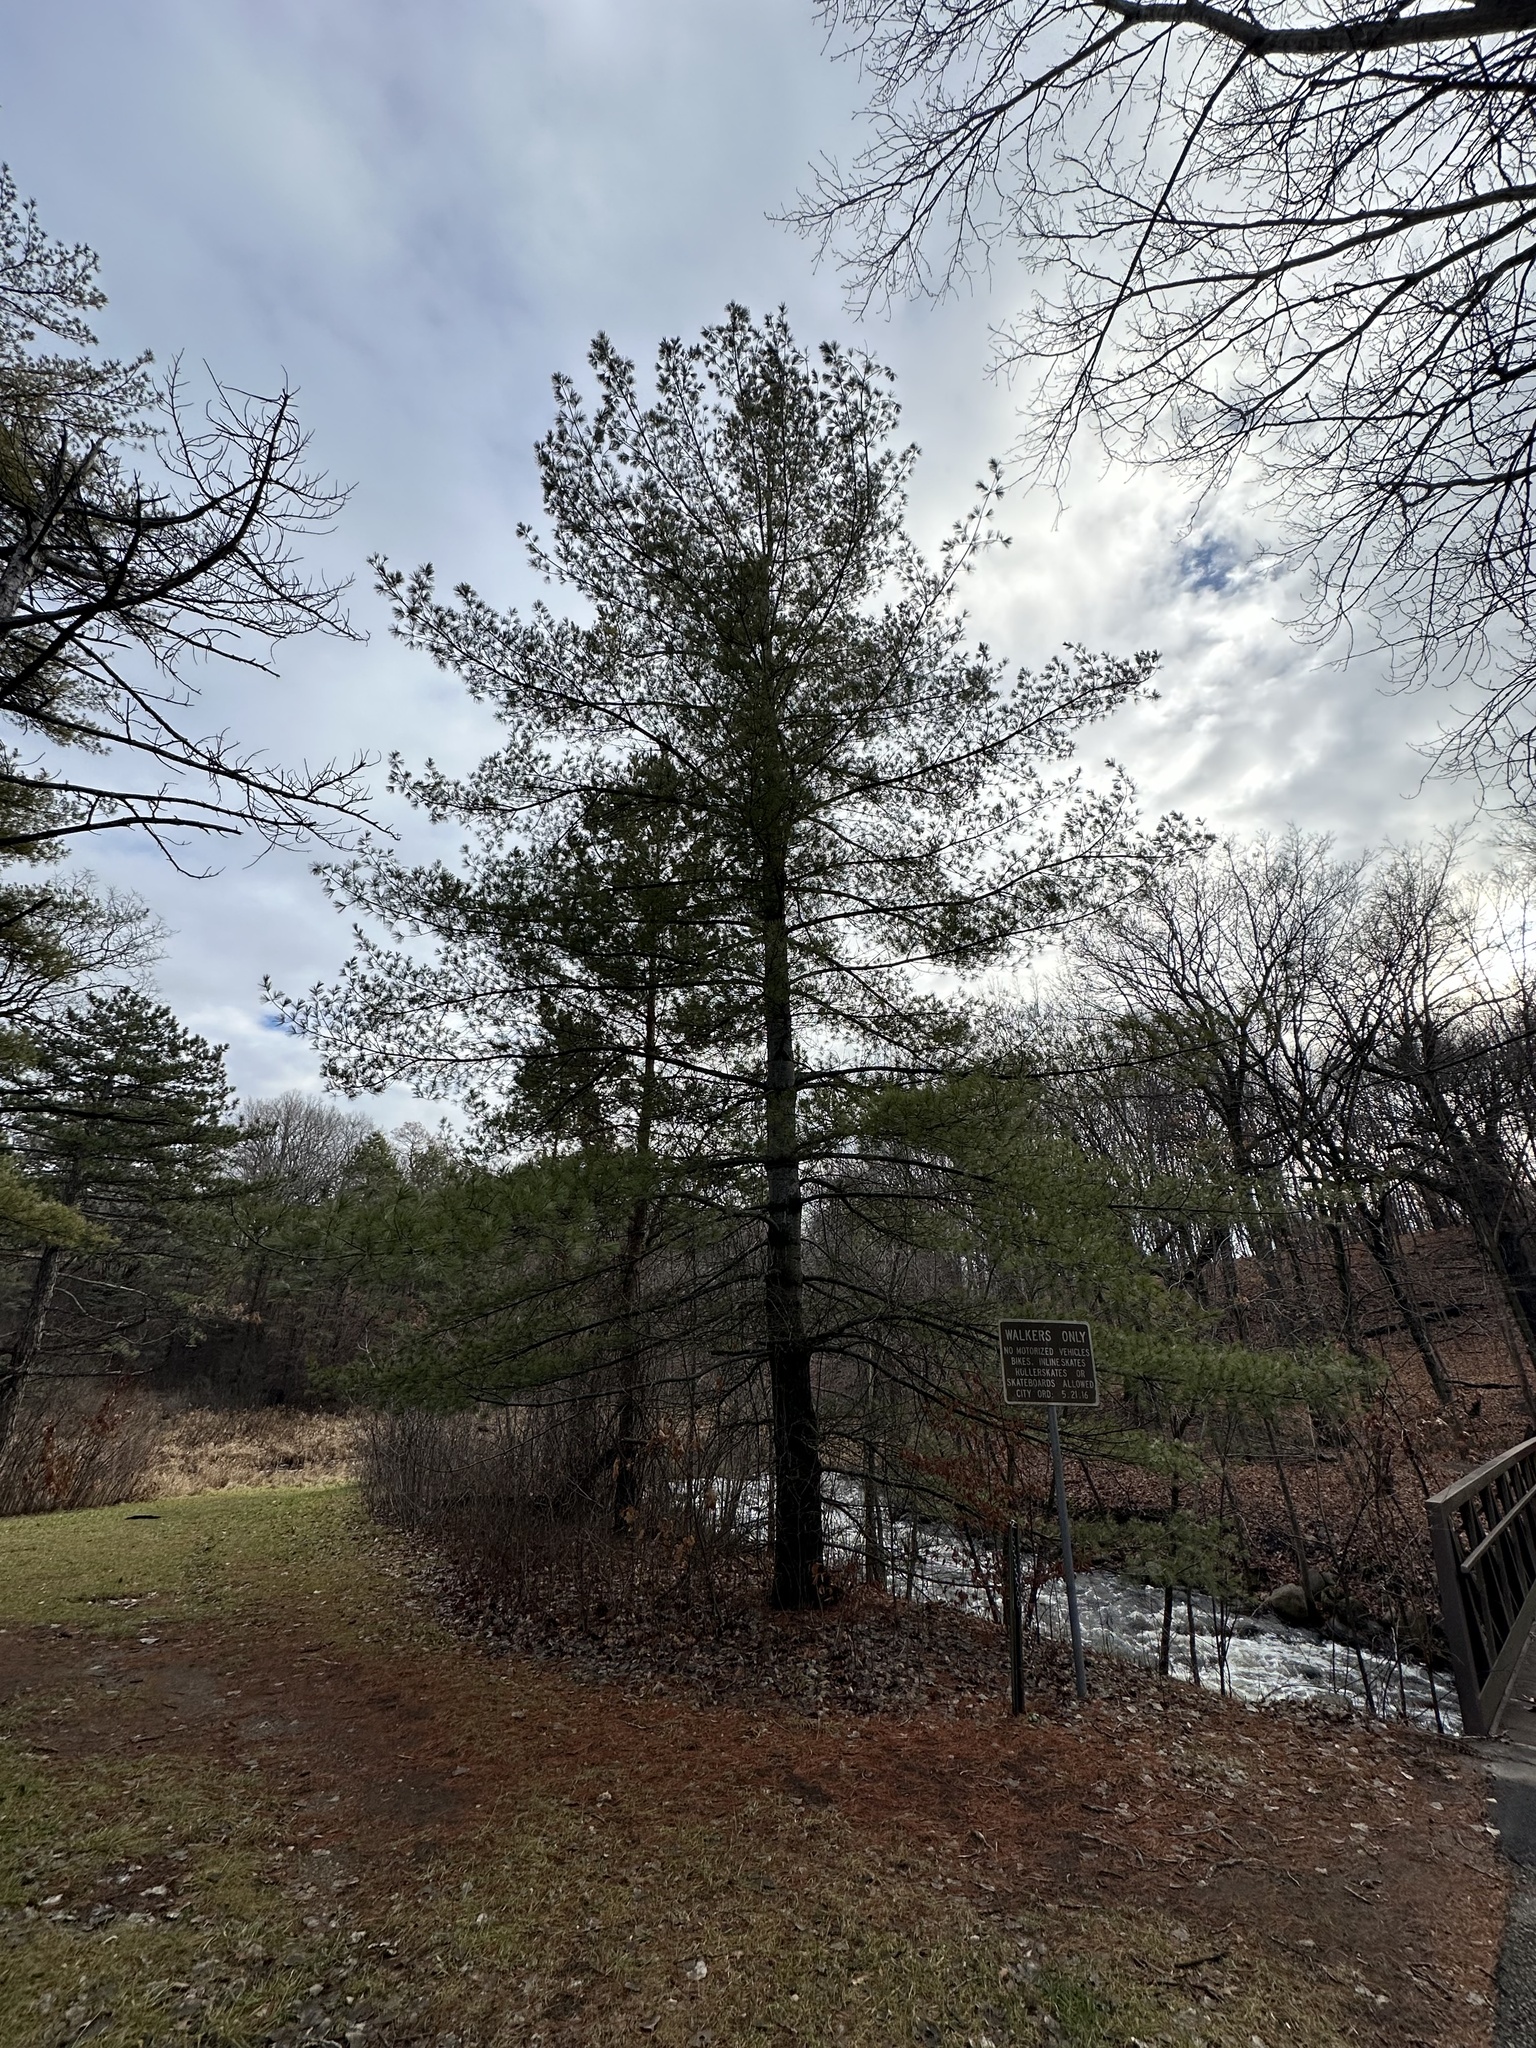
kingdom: Plantae
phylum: Tracheophyta
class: Pinopsida
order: Pinales
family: Pinaceae
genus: Pinus
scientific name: Pinus strobus
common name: Weymouth pine
